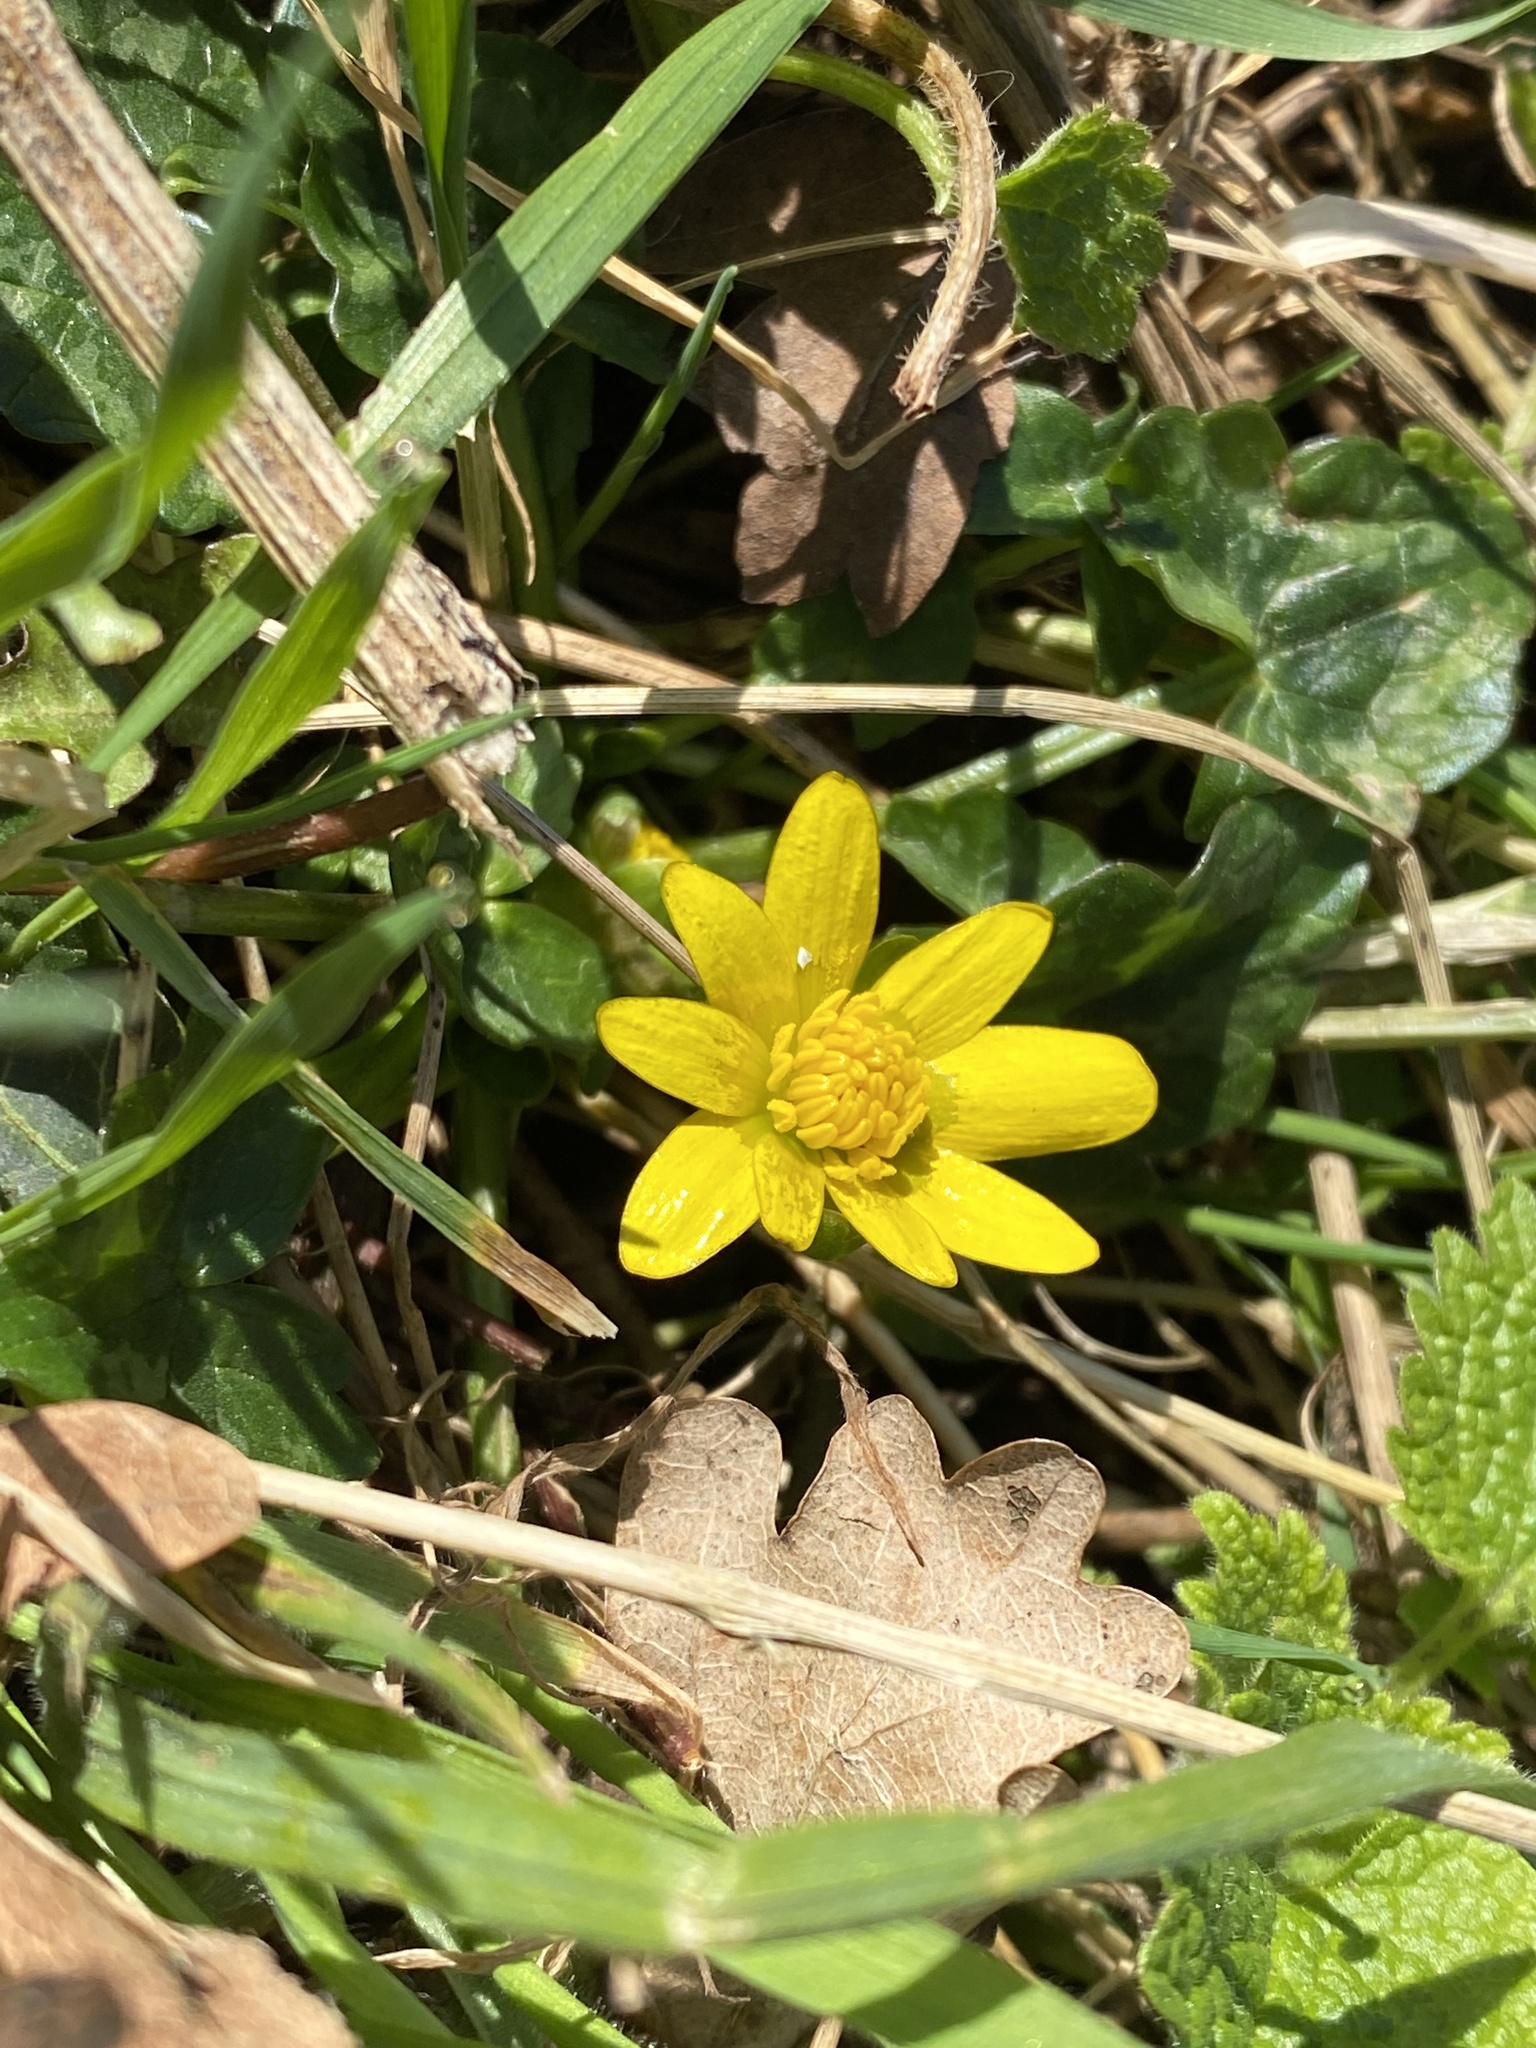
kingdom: Plantae
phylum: Tracheophyta
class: Magnoliopsida
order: Ranunculales
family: Ranunculaceae
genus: Ficaria
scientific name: Ficaria verna
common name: Lesser celandine
